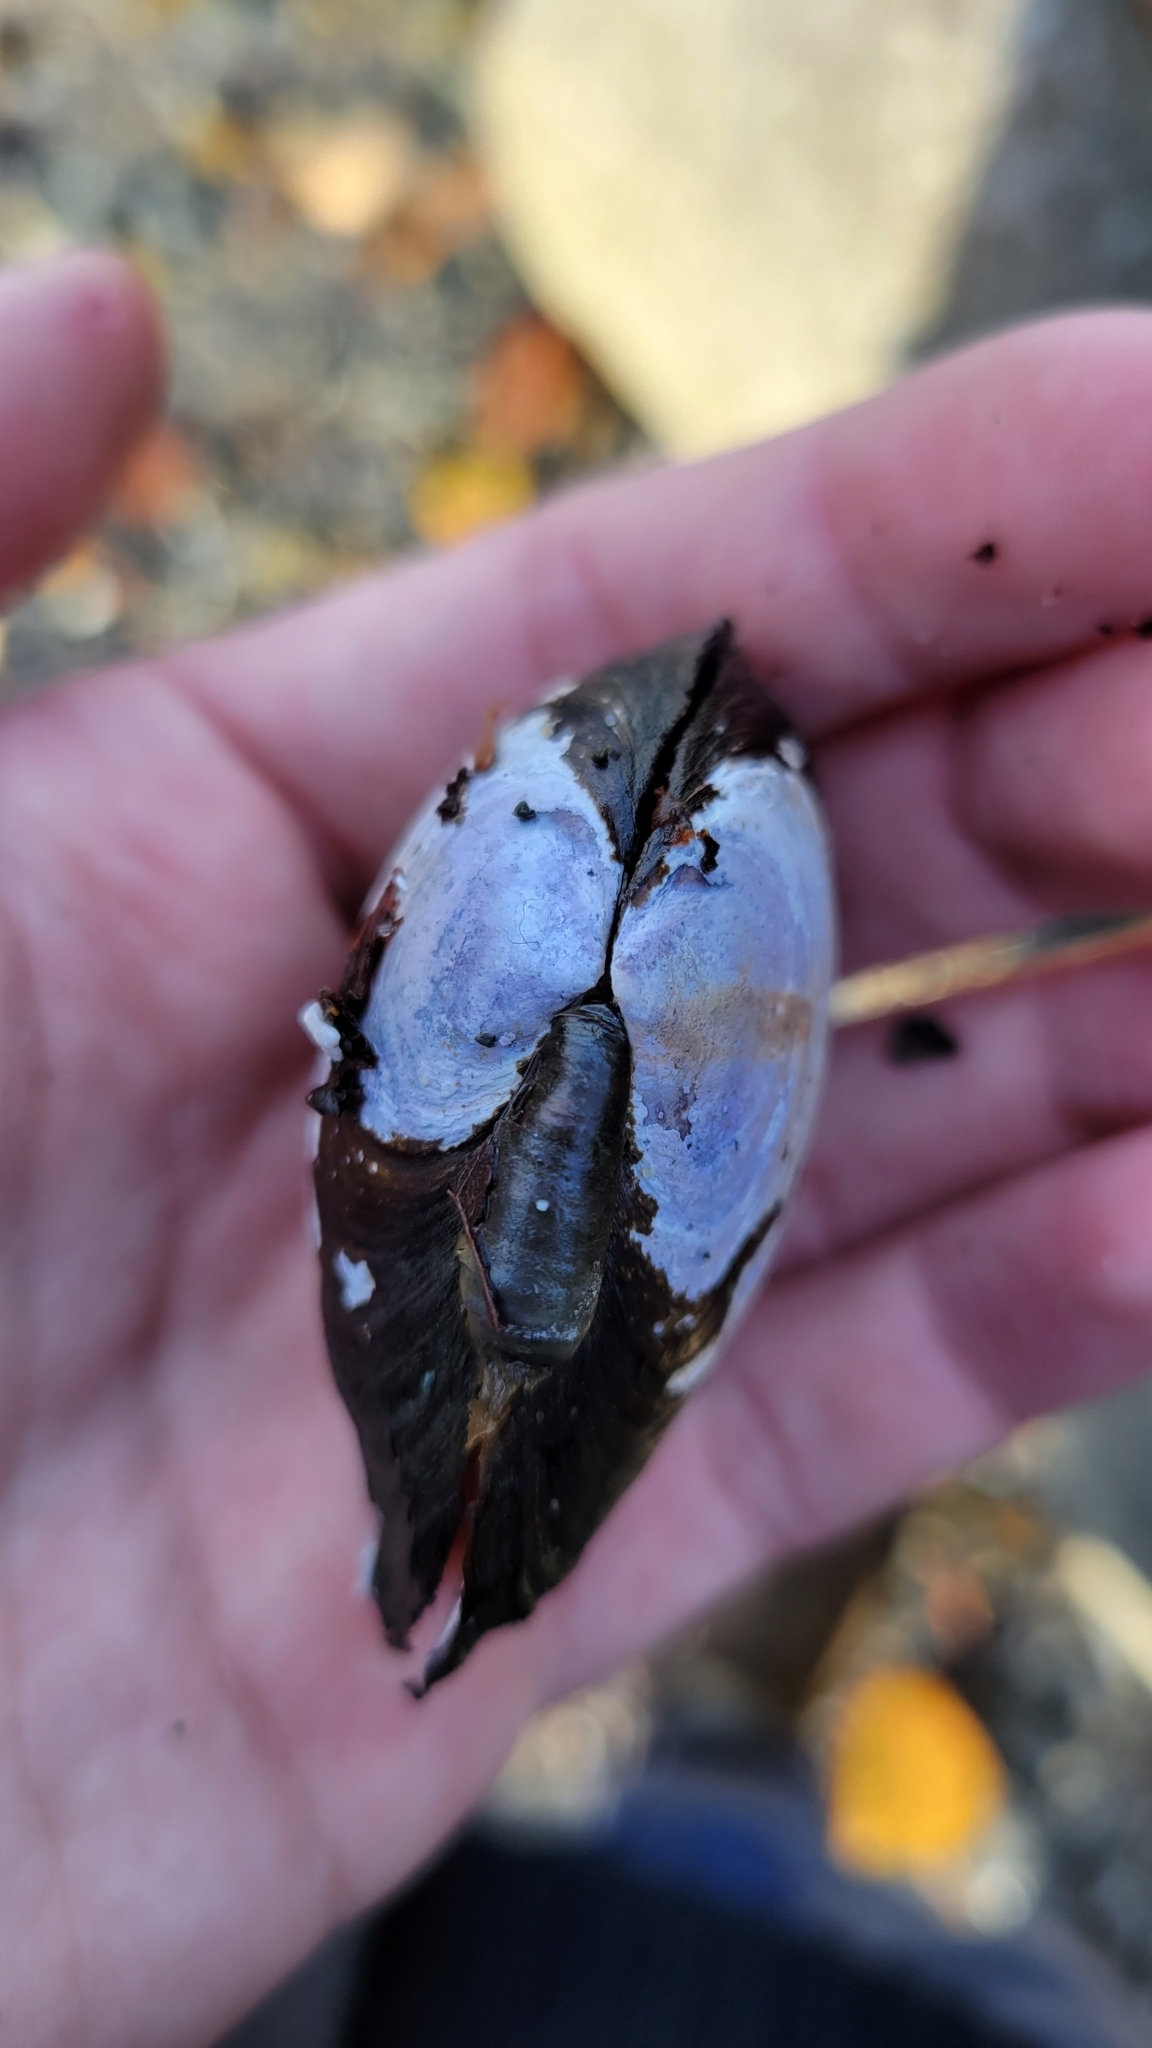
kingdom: Animalia
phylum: Mollusca
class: Bivalvia
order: Cardiida
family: Psammobiidae
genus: Nuttallia
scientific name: Nuttallia obscurata
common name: Purple mahogany-clam
